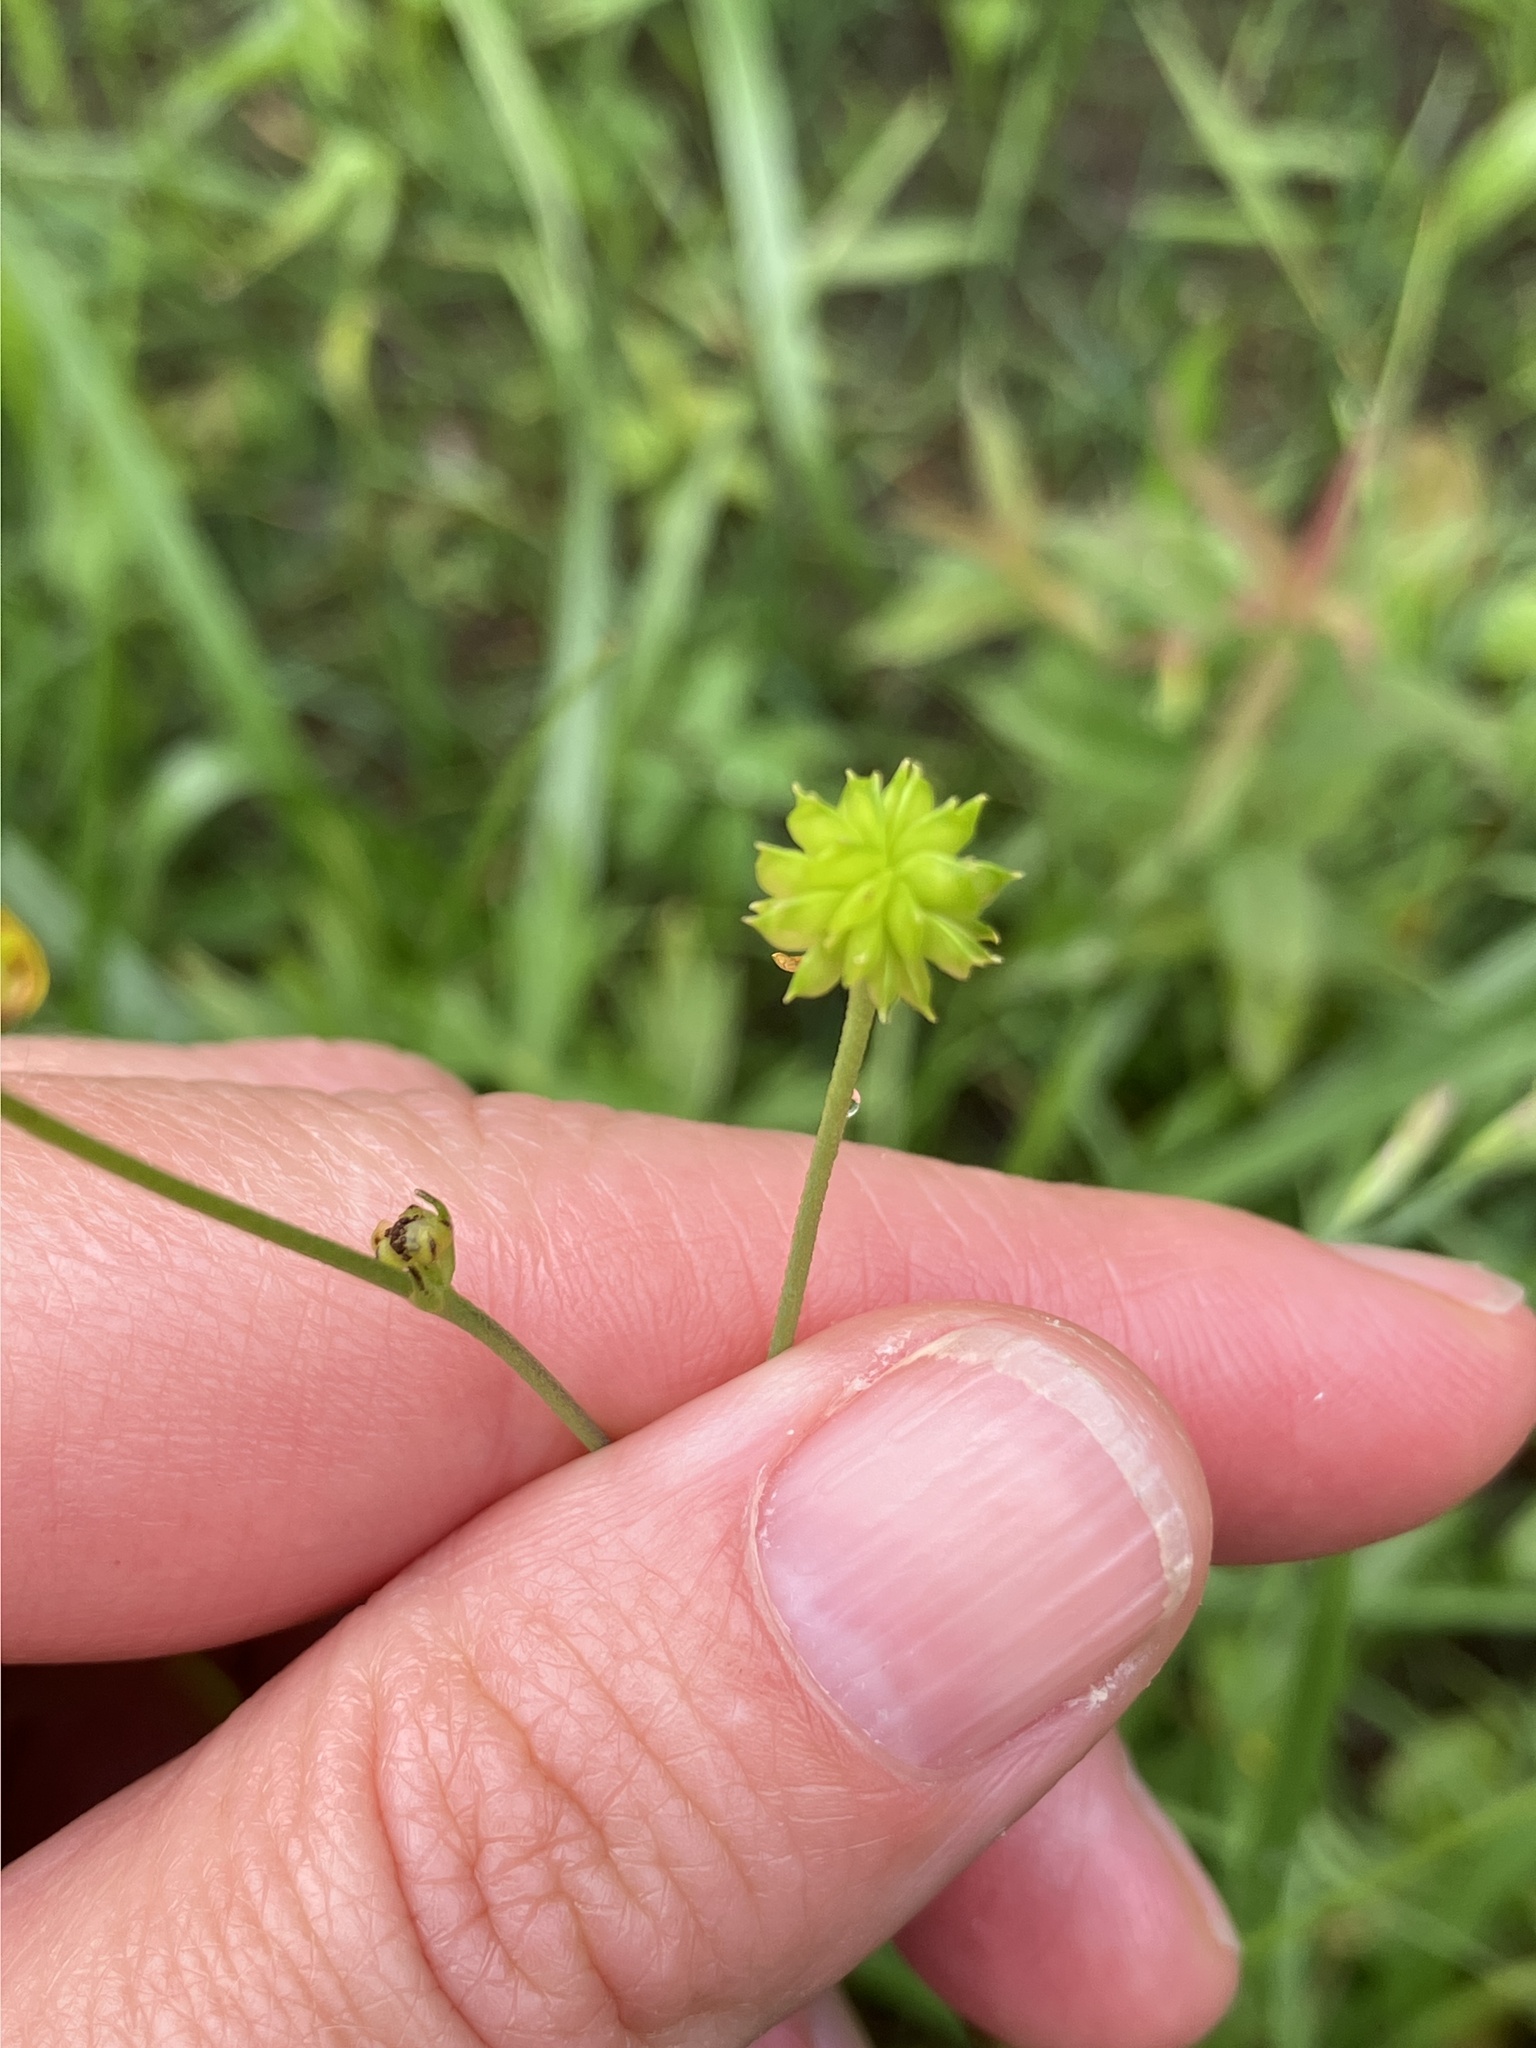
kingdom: Plantae
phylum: Tracheophyta
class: Magnoliopsida
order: Ranunculales
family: Ranunculaceae
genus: Ranunculus
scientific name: Ranunculus acris
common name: Meadow buttercup
